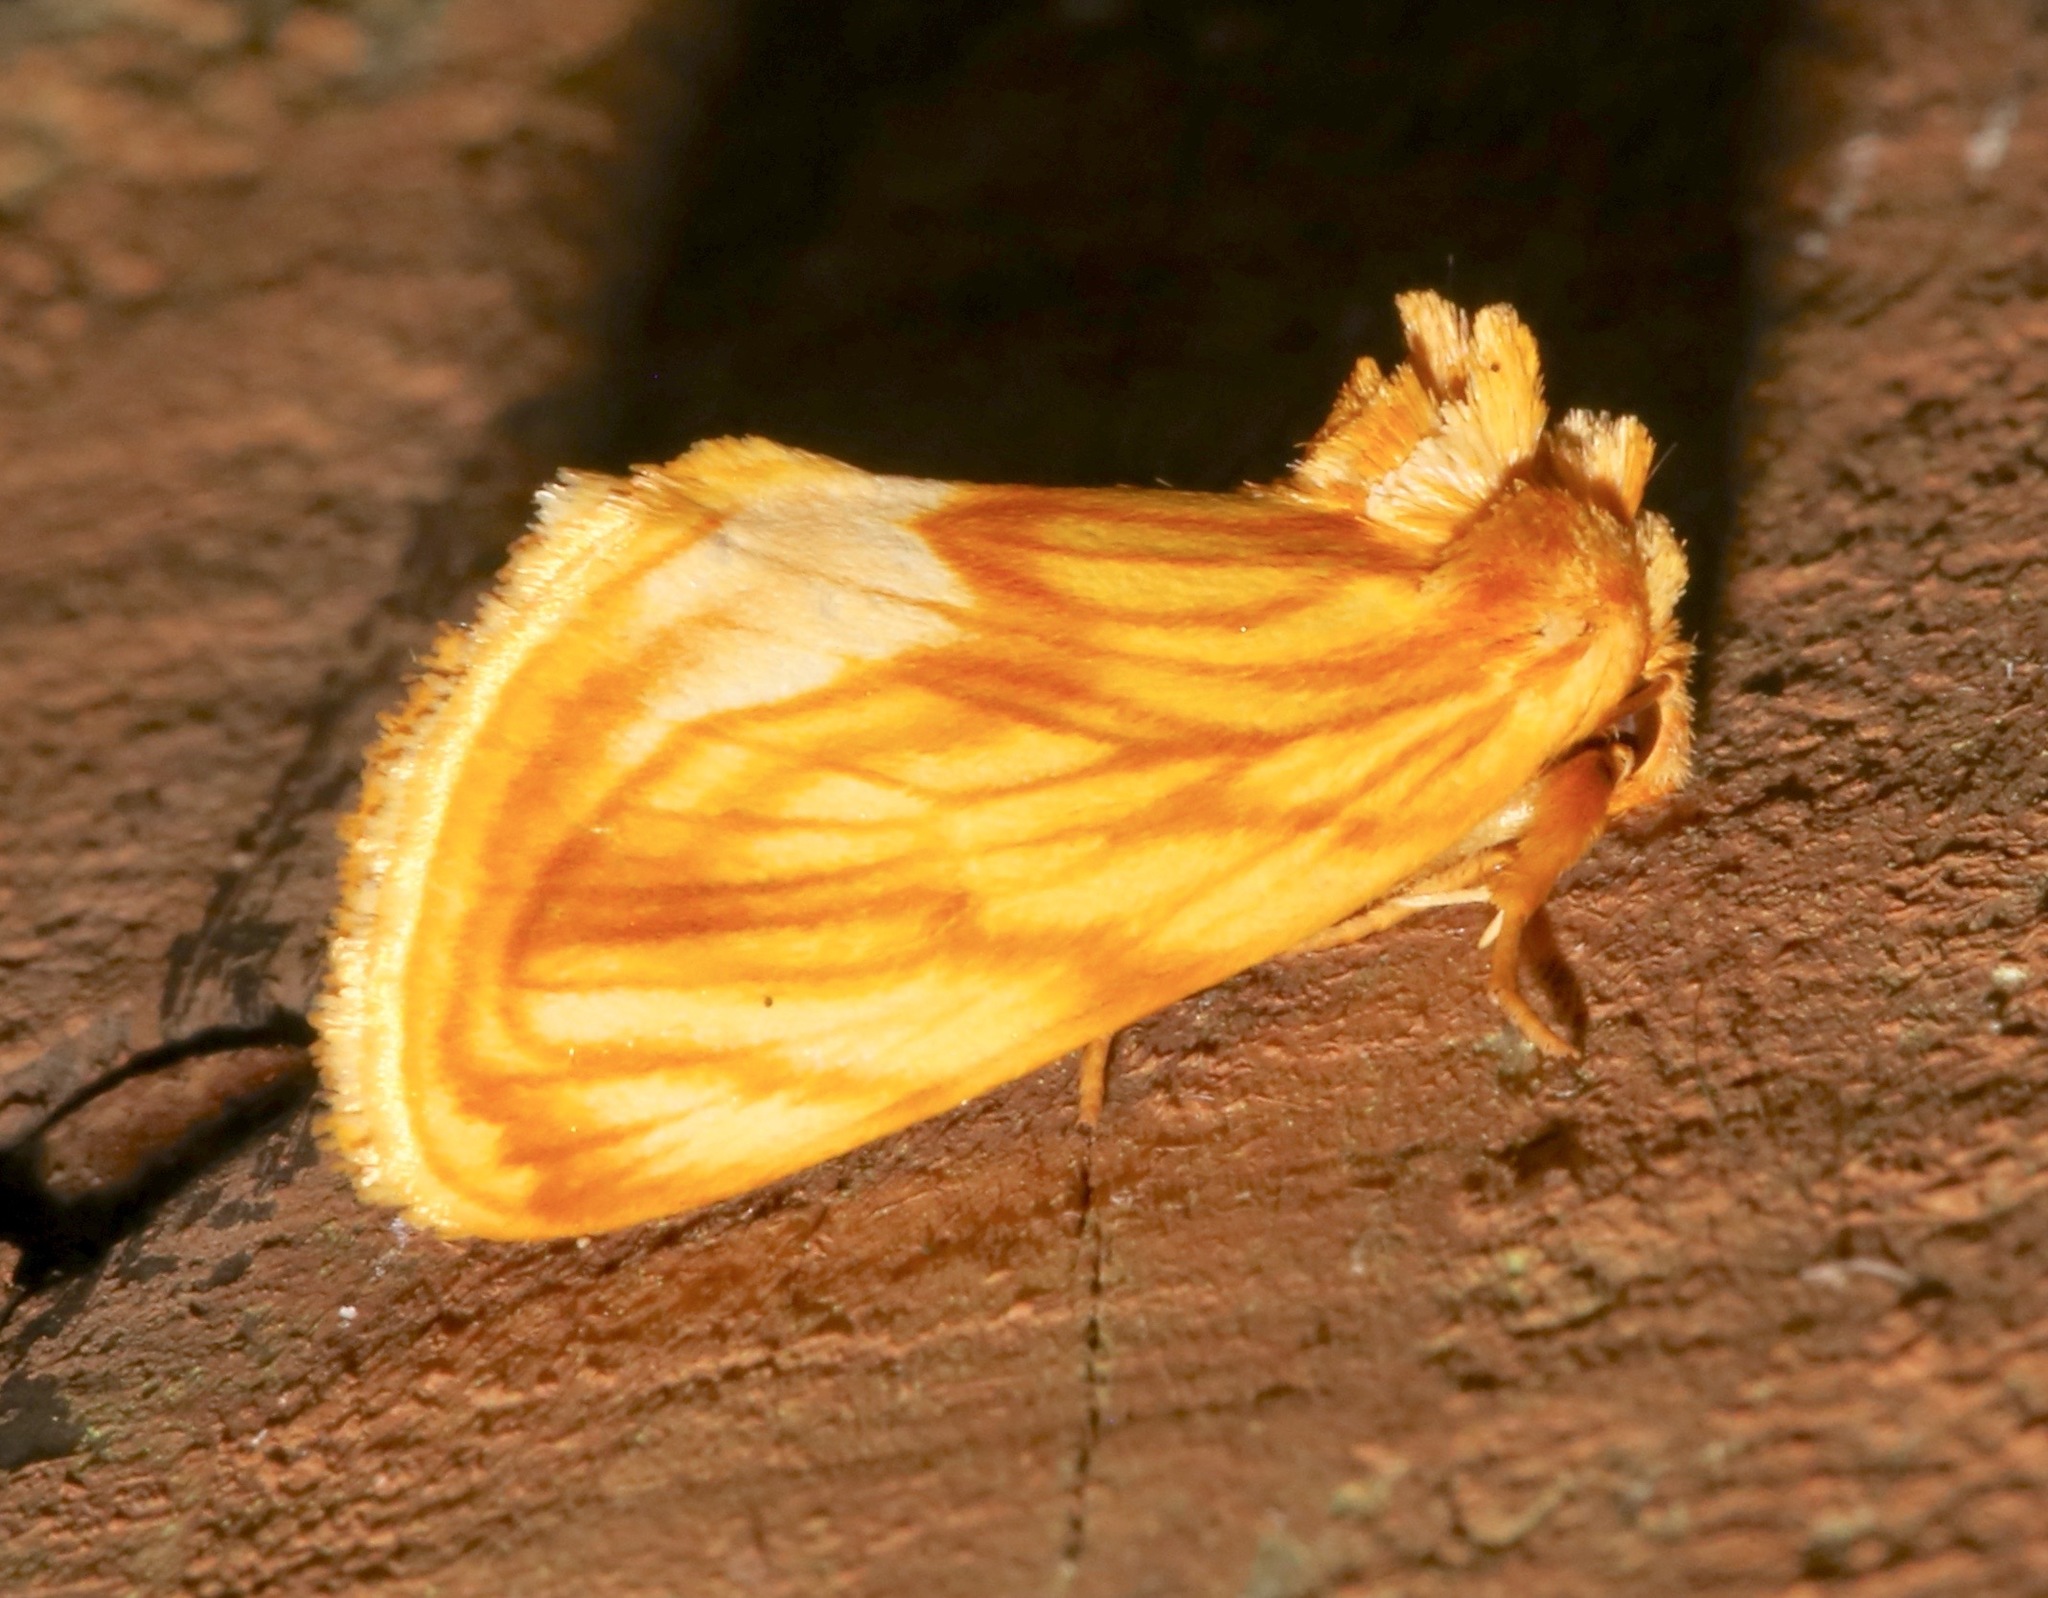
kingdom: Animalia
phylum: Arthropoda
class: Insecta
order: Lepidoptera
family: Noctuidae
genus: Cirrhophanus
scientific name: Cirrhophanus triangulifer
